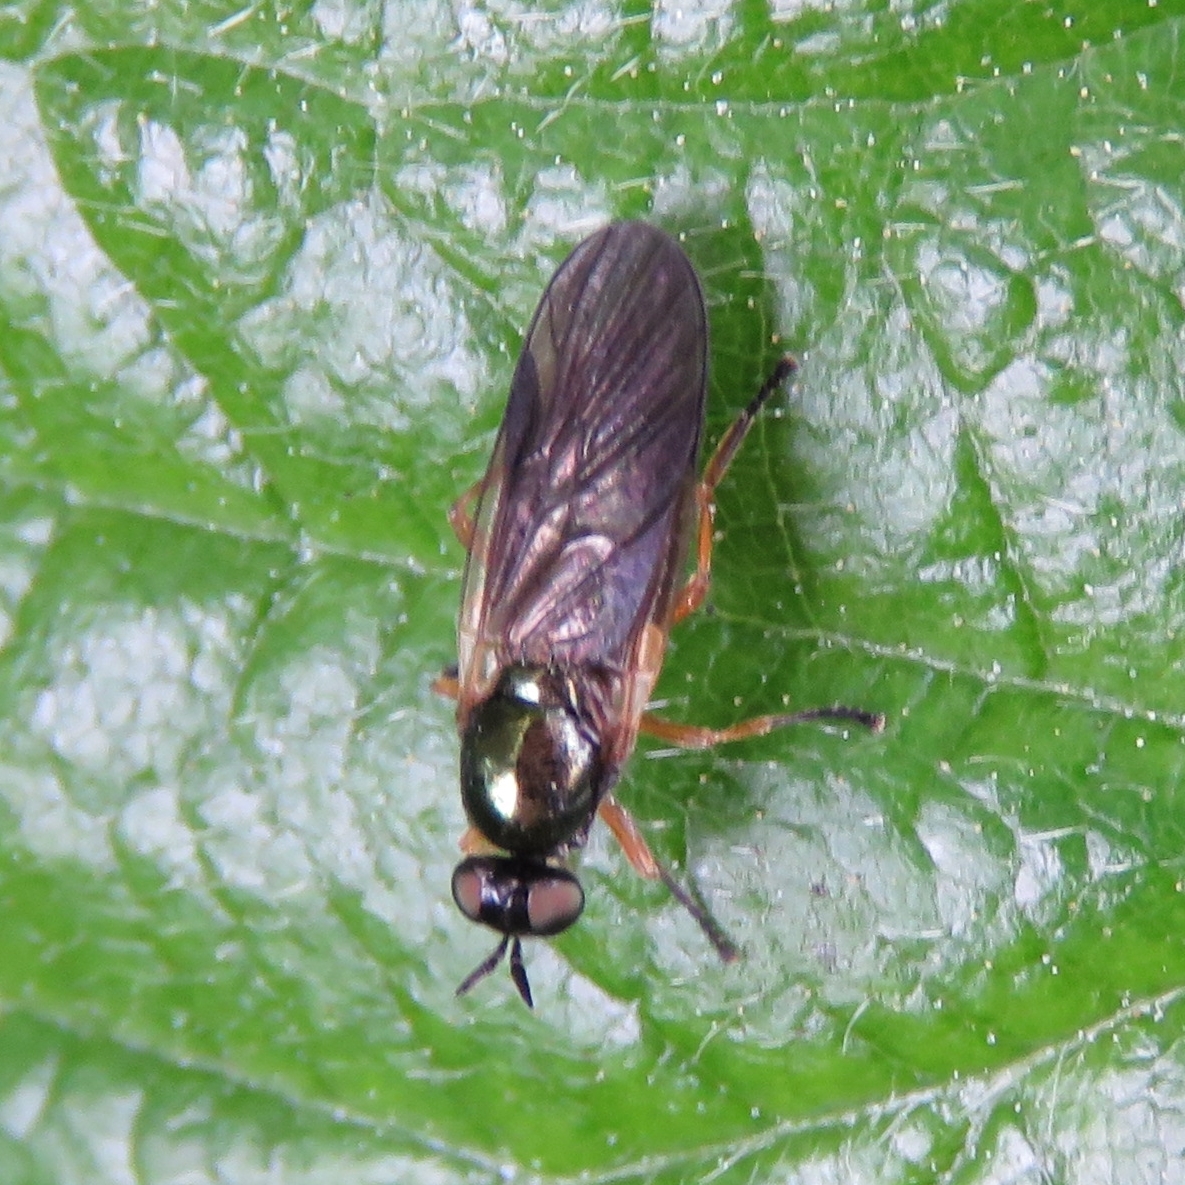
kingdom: Animalia
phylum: Arthropoda
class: Insecta
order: Diptera
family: Stratiomyidae
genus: Beris
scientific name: Beris chalybata
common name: Murky-legged black legionnaire
